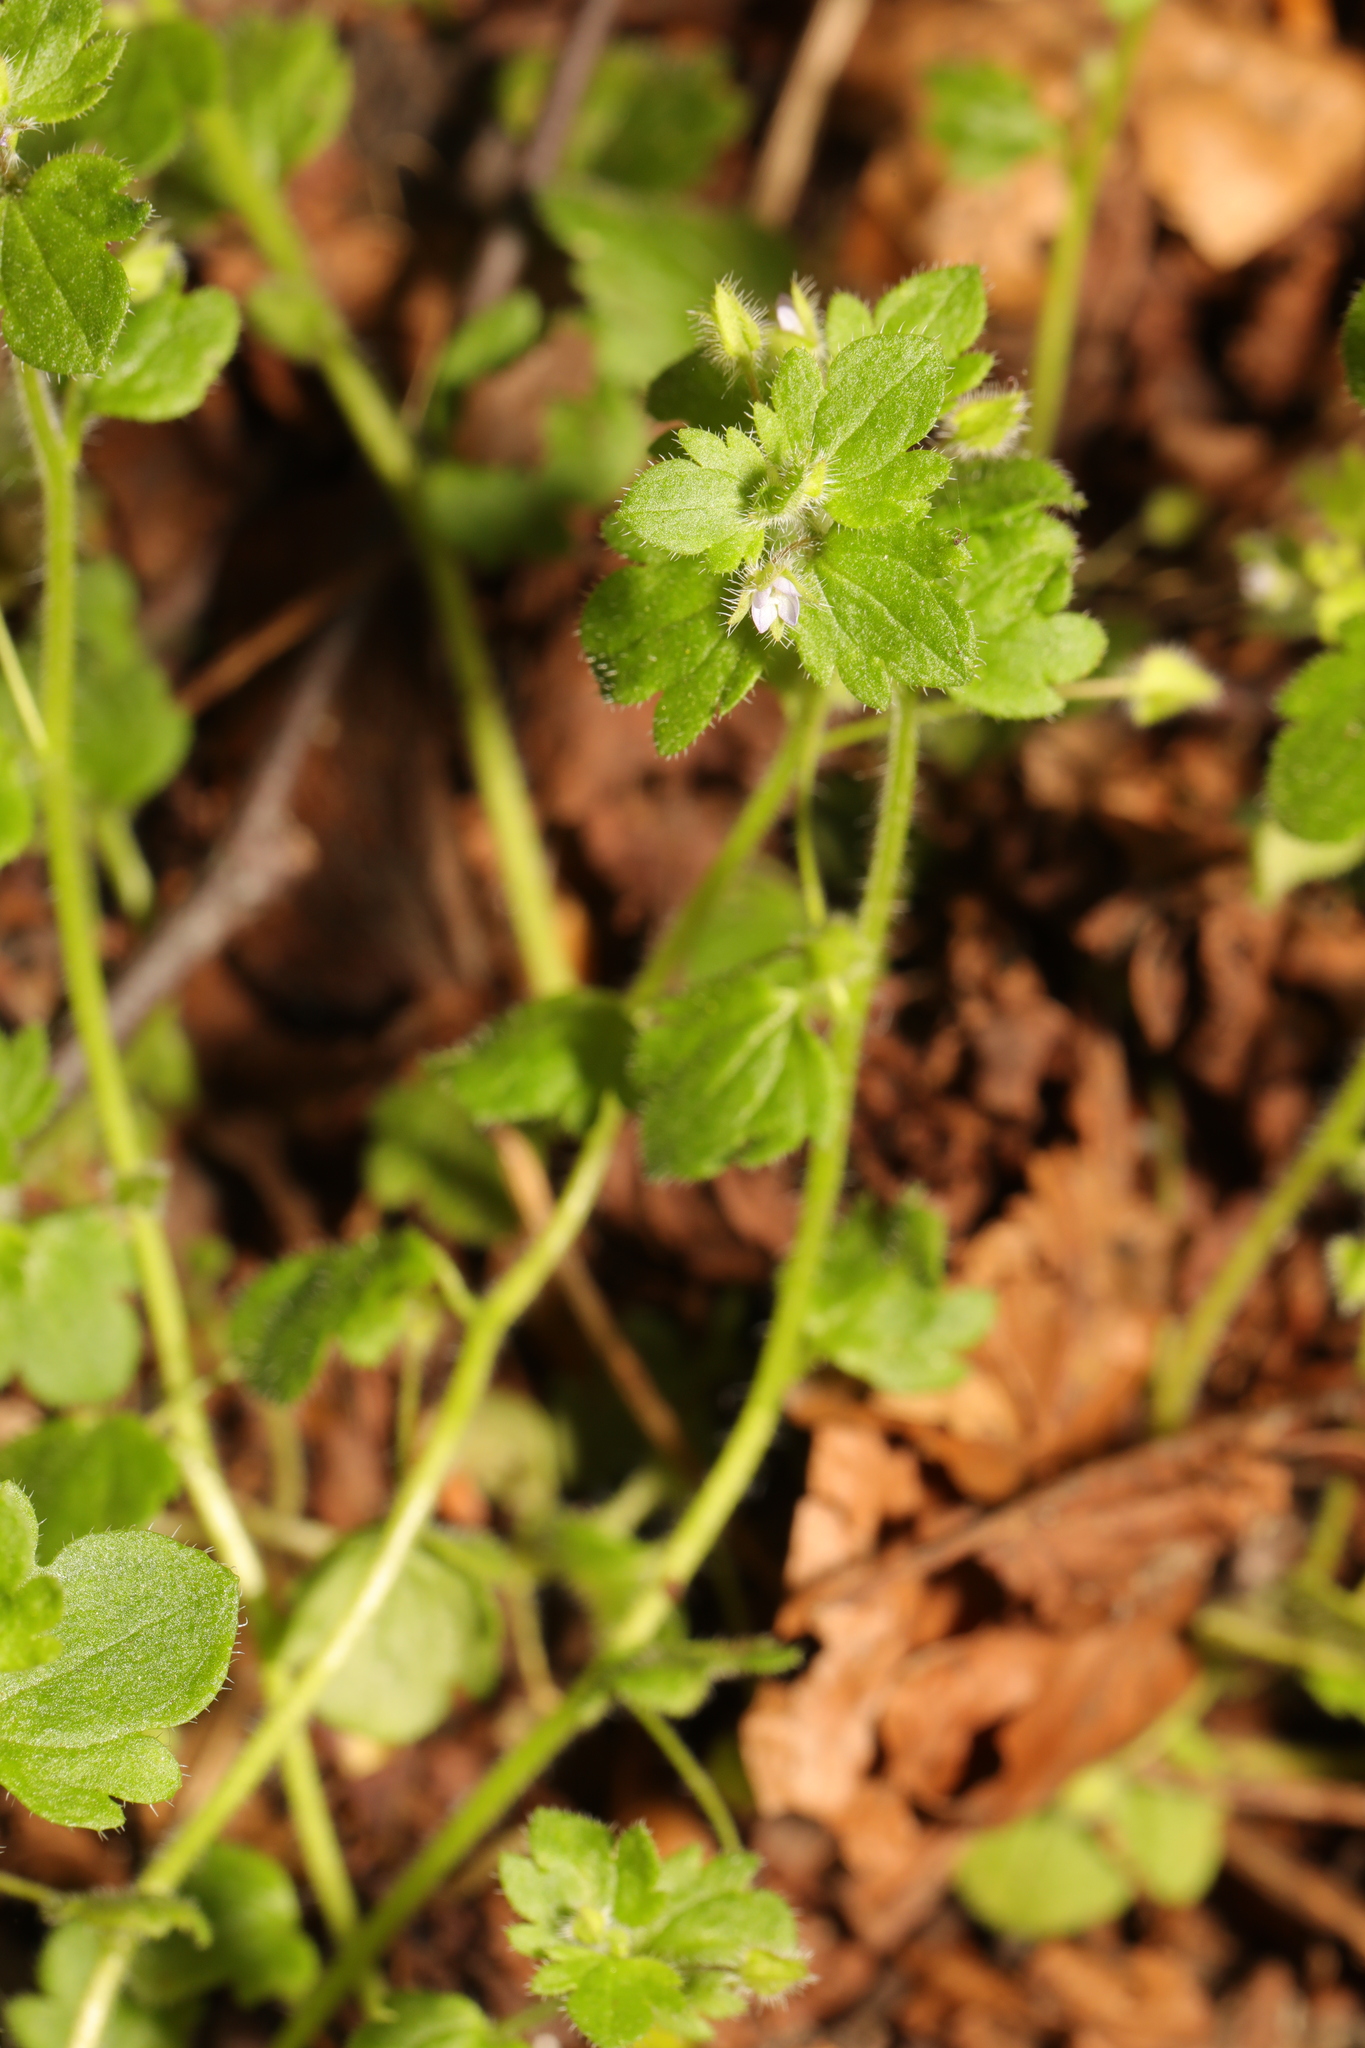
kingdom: Plantae
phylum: Tracheophyta
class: Magnoliopsida
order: Lamiales
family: Plantaginaceae
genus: Veronica
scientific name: Veronica sublobata
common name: False ivy-leaved speedwell
